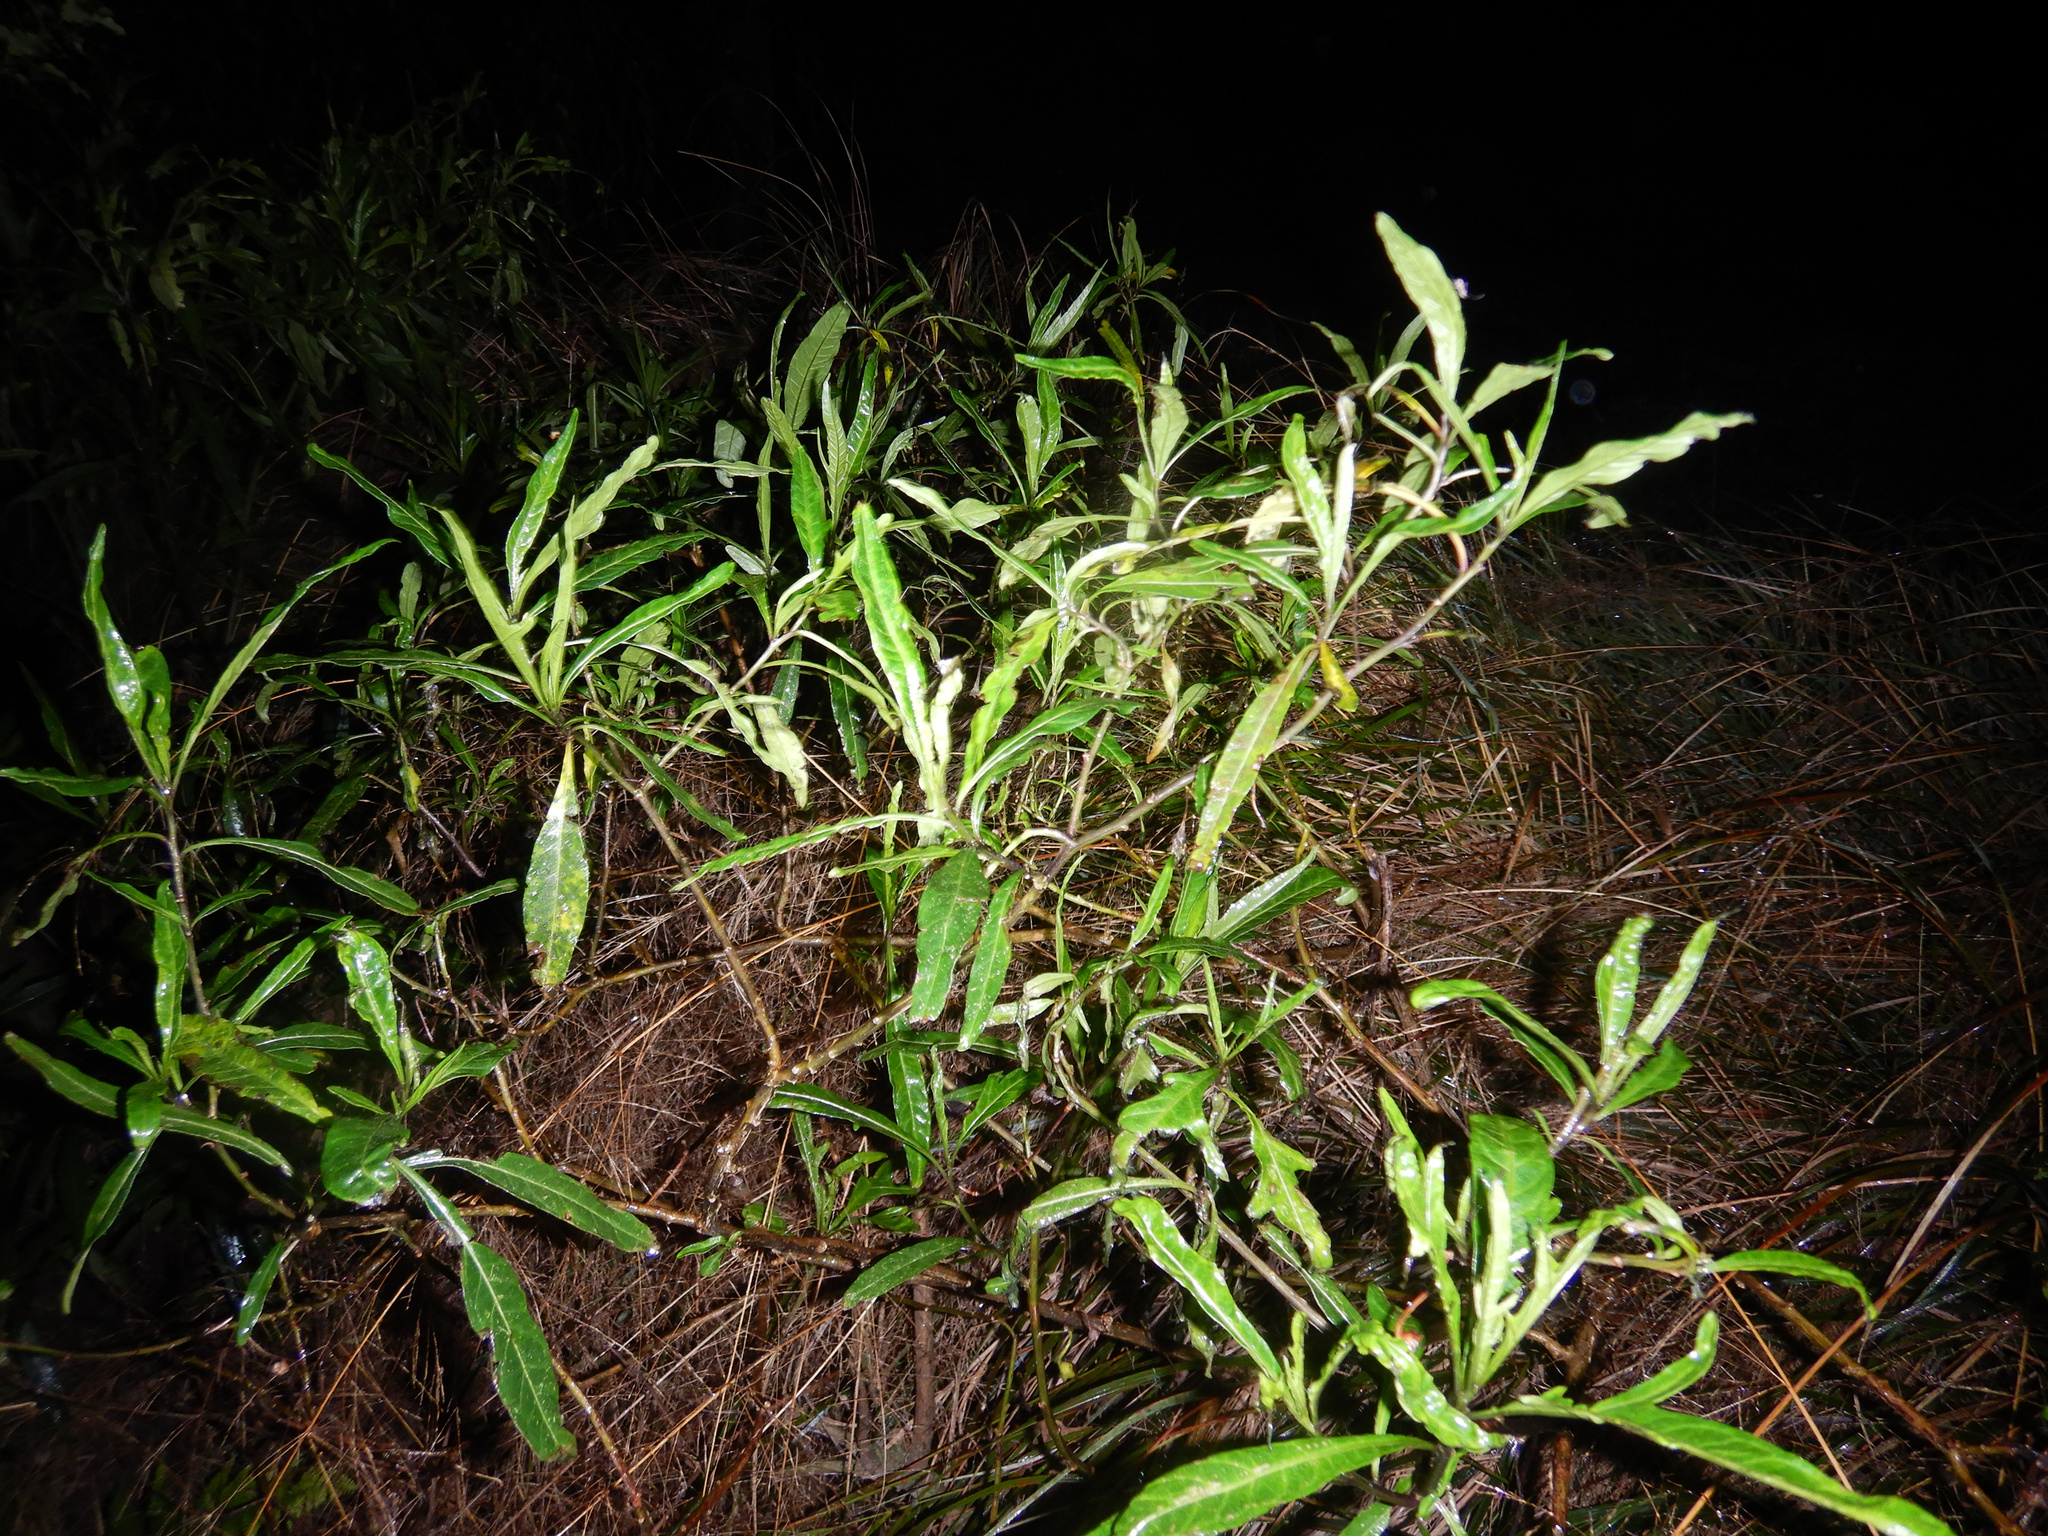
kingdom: Plantae
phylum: Tracheophyta
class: Magnoliopsida
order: Solanales
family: Solanaceae
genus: Solanum
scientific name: Solanum laciniatum
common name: Kangaroo-apple
